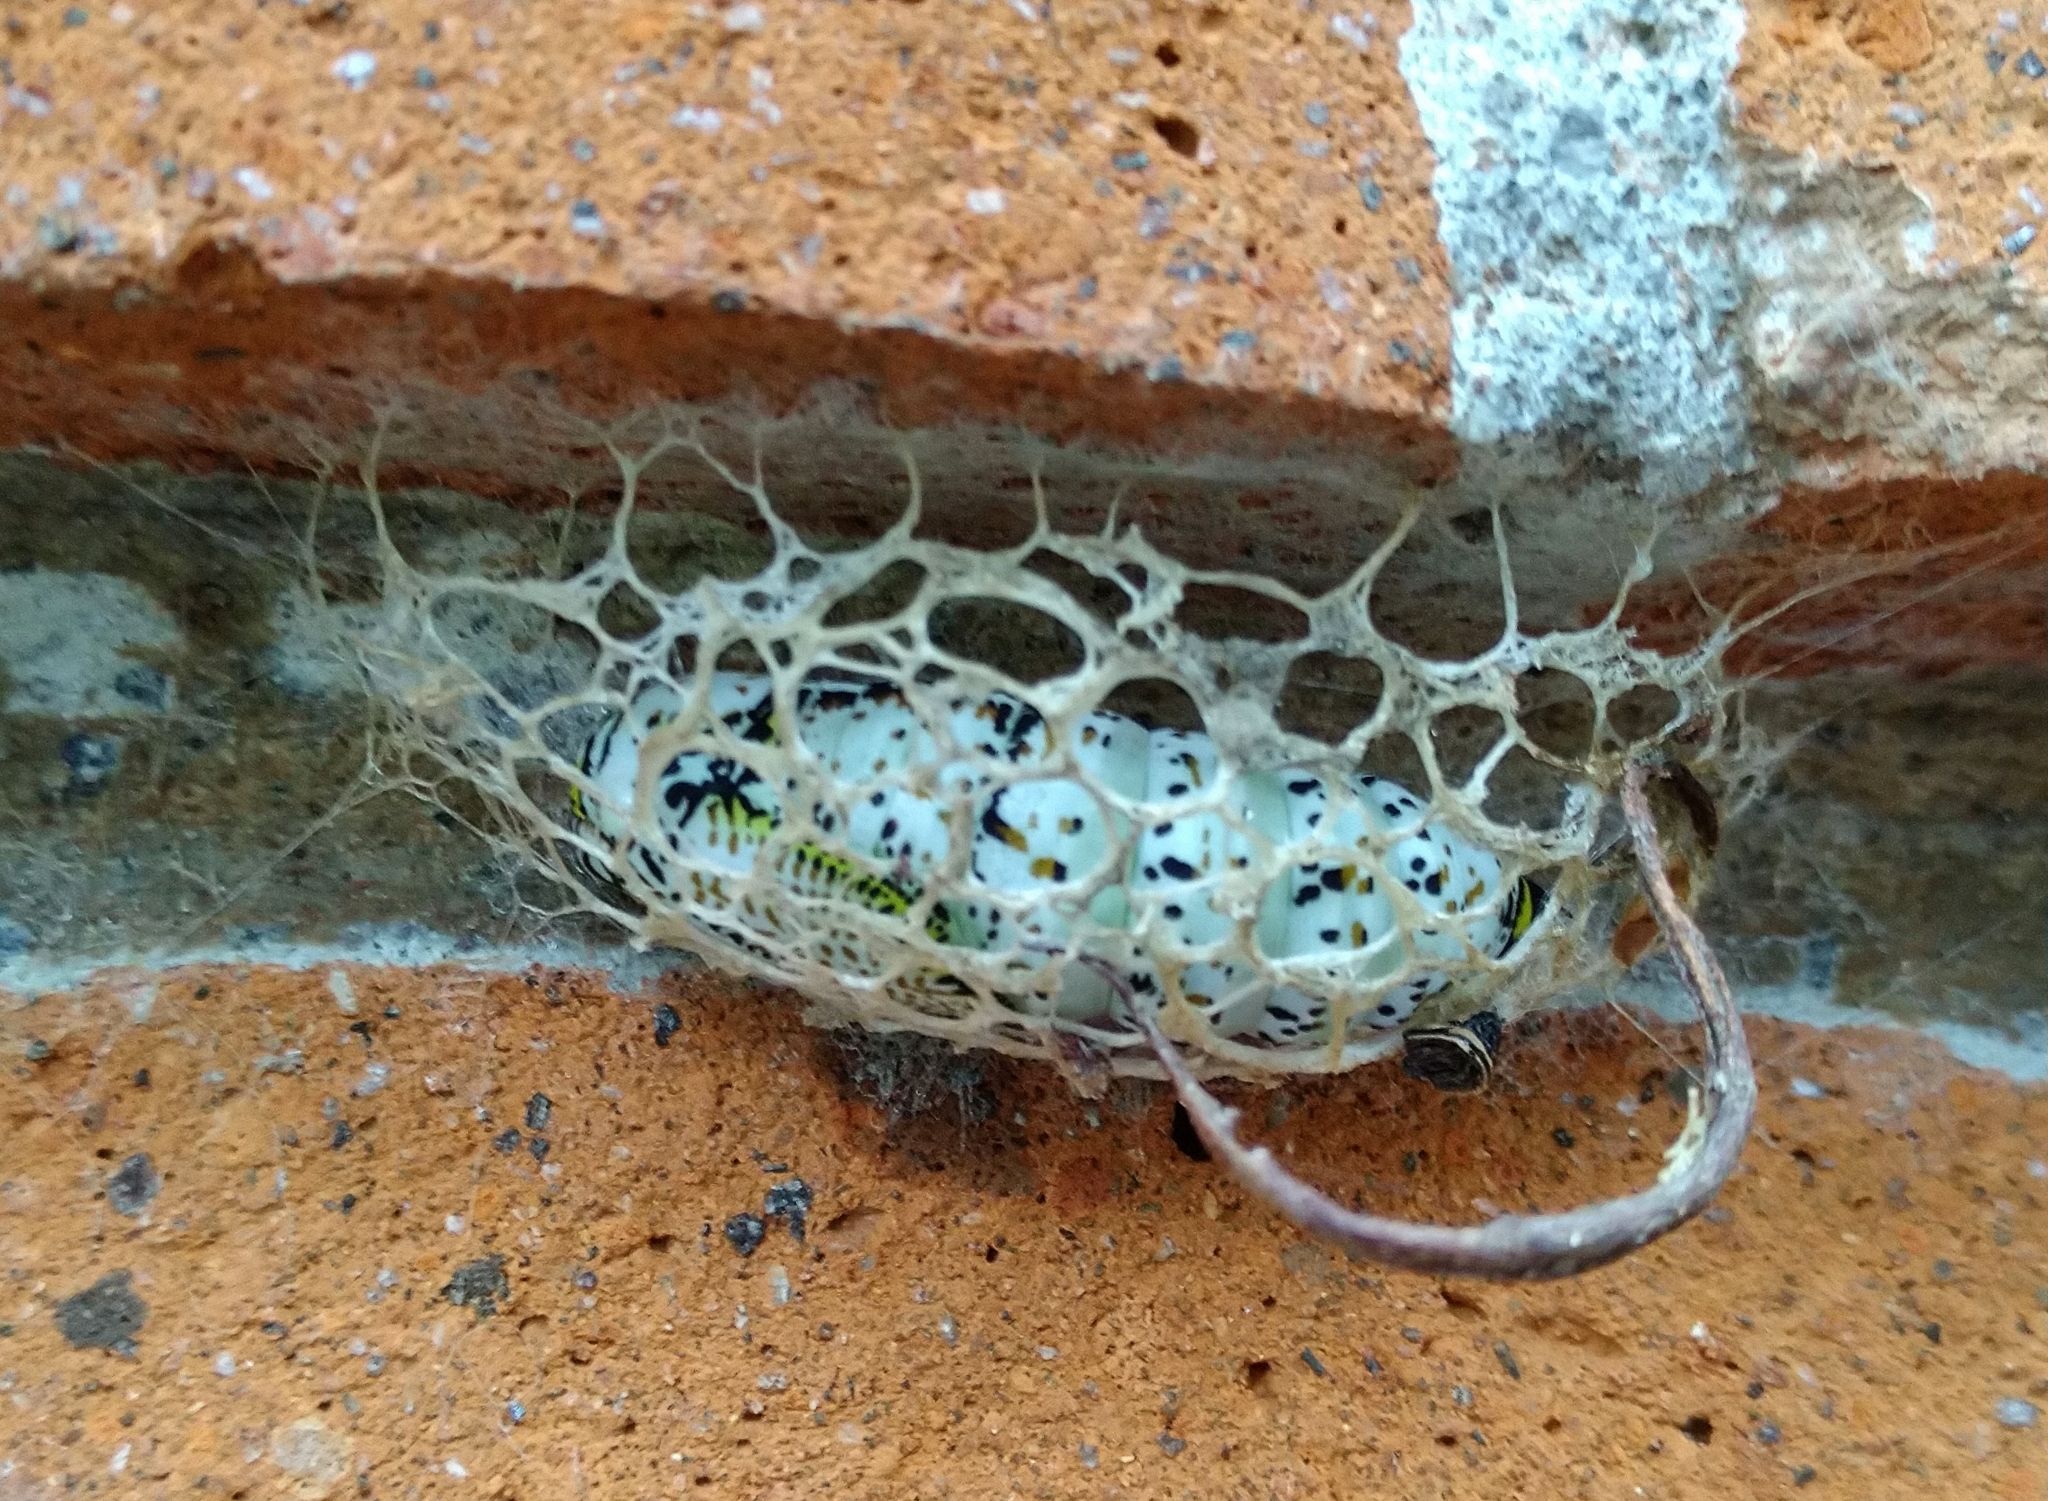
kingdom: Animalia
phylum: Arthropoda
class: Insecta
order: Lepidoptera
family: Geometridae
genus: Acronyctodes
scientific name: Acronyctodes mexicanaria
